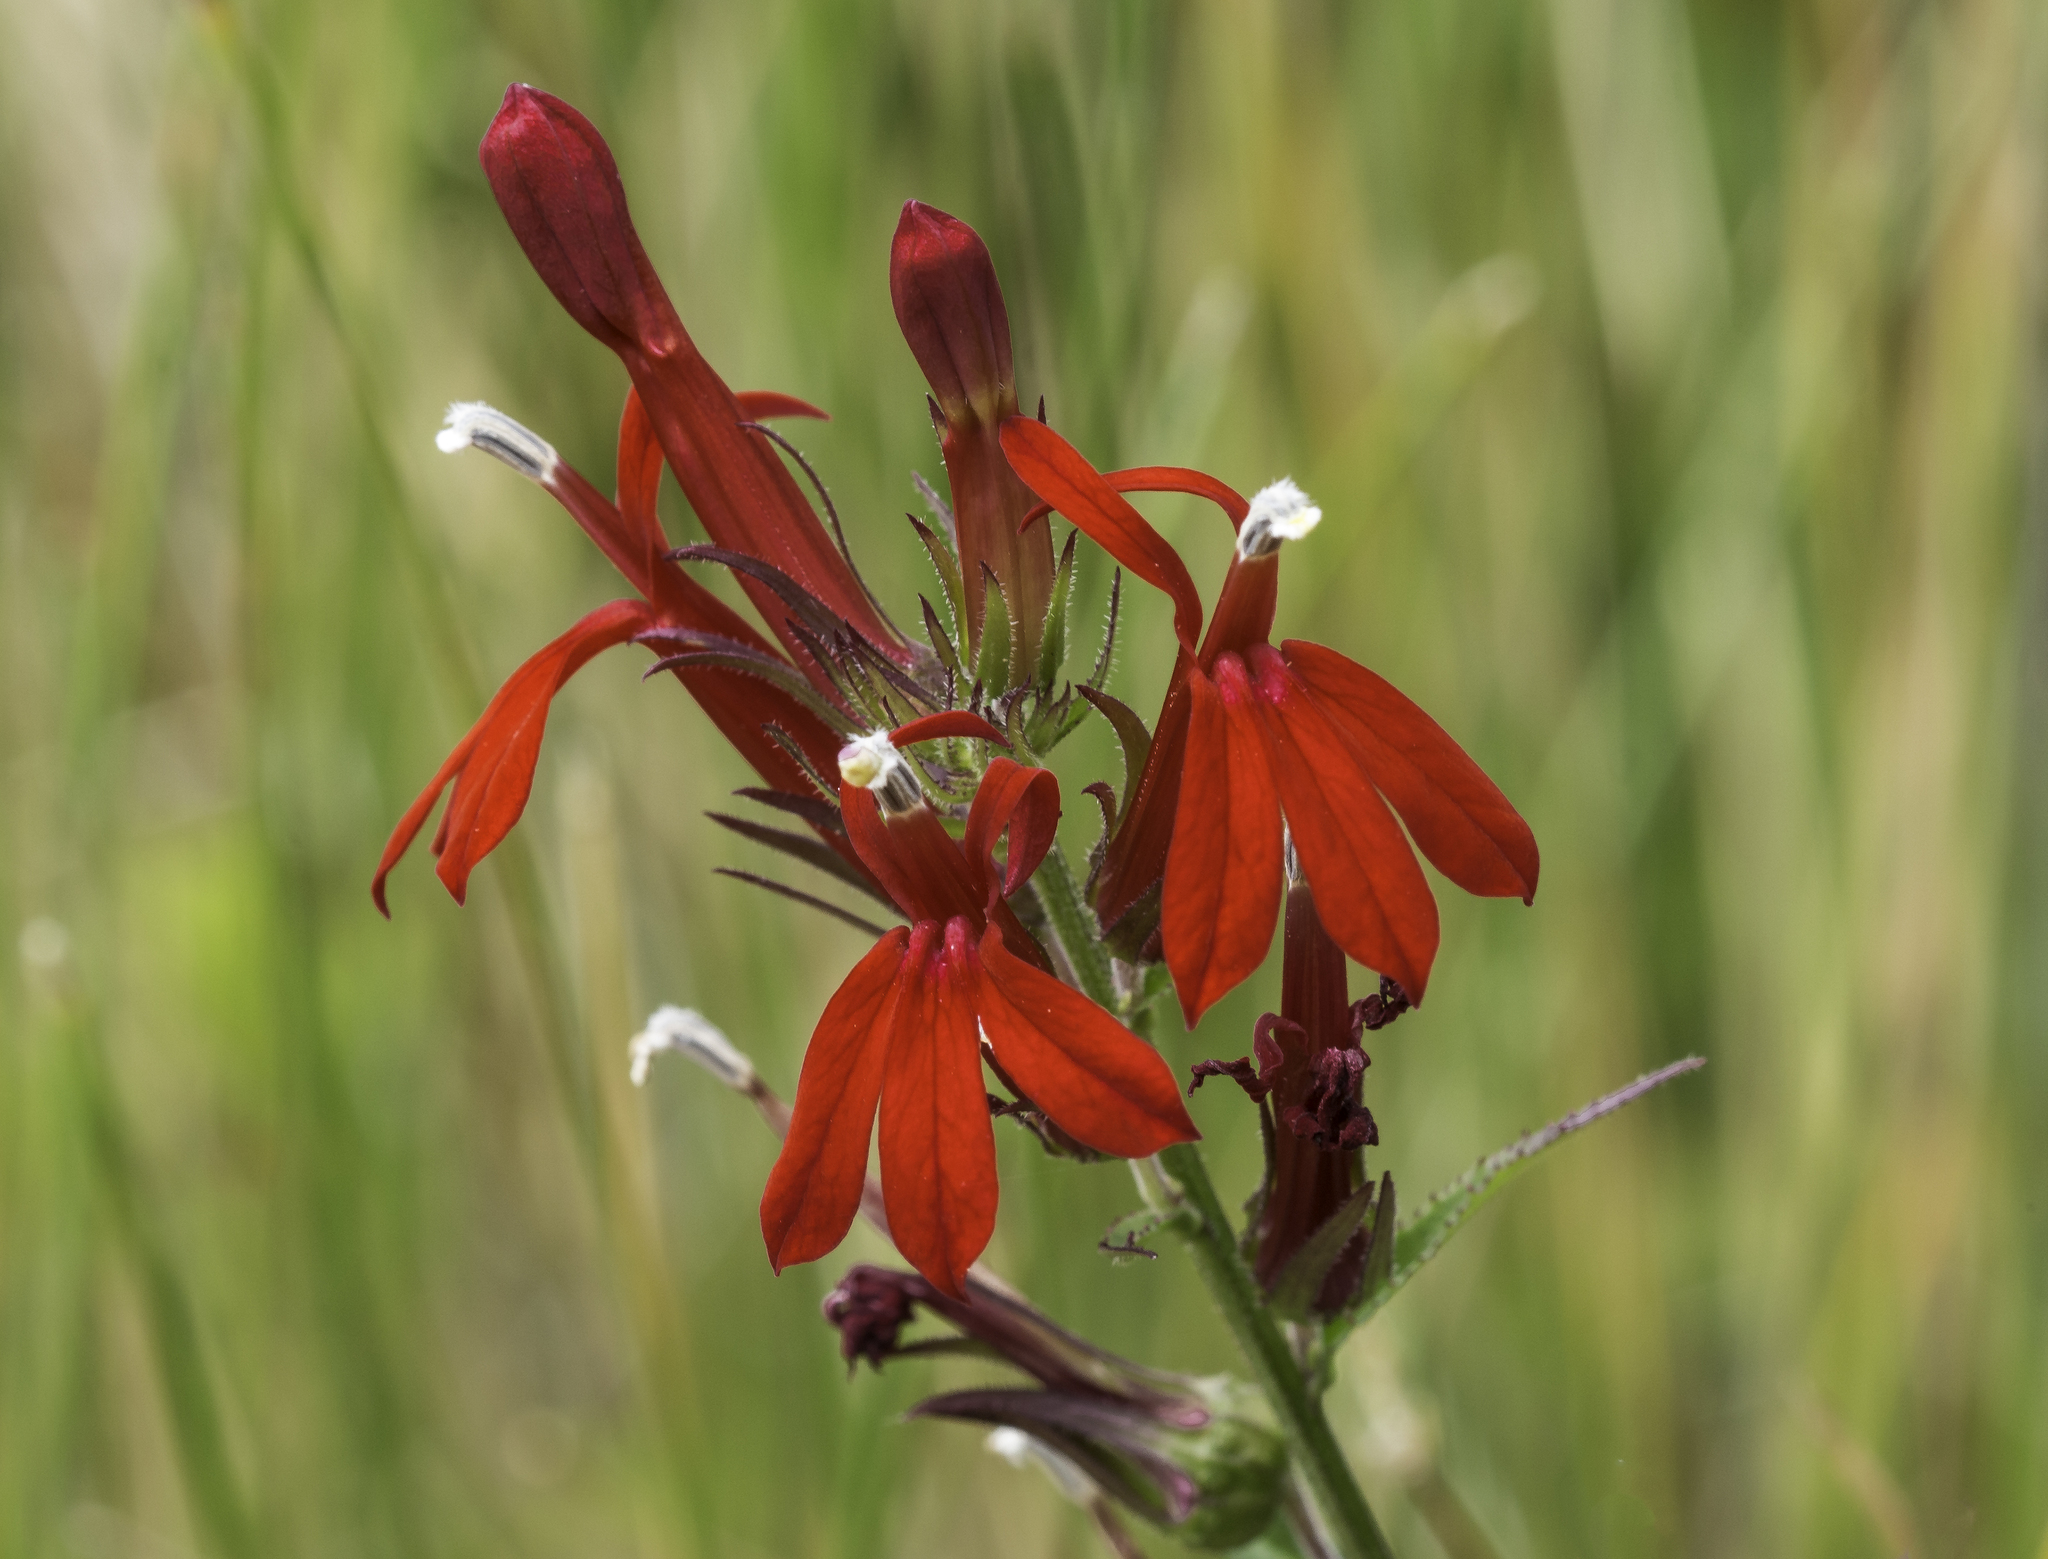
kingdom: Plantae
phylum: Tracheophyta
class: Magnoliopsida
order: Asterales
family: Campanulaceae
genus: Lobelia
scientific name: Lobelia cardinalis
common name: Cardinal flower
